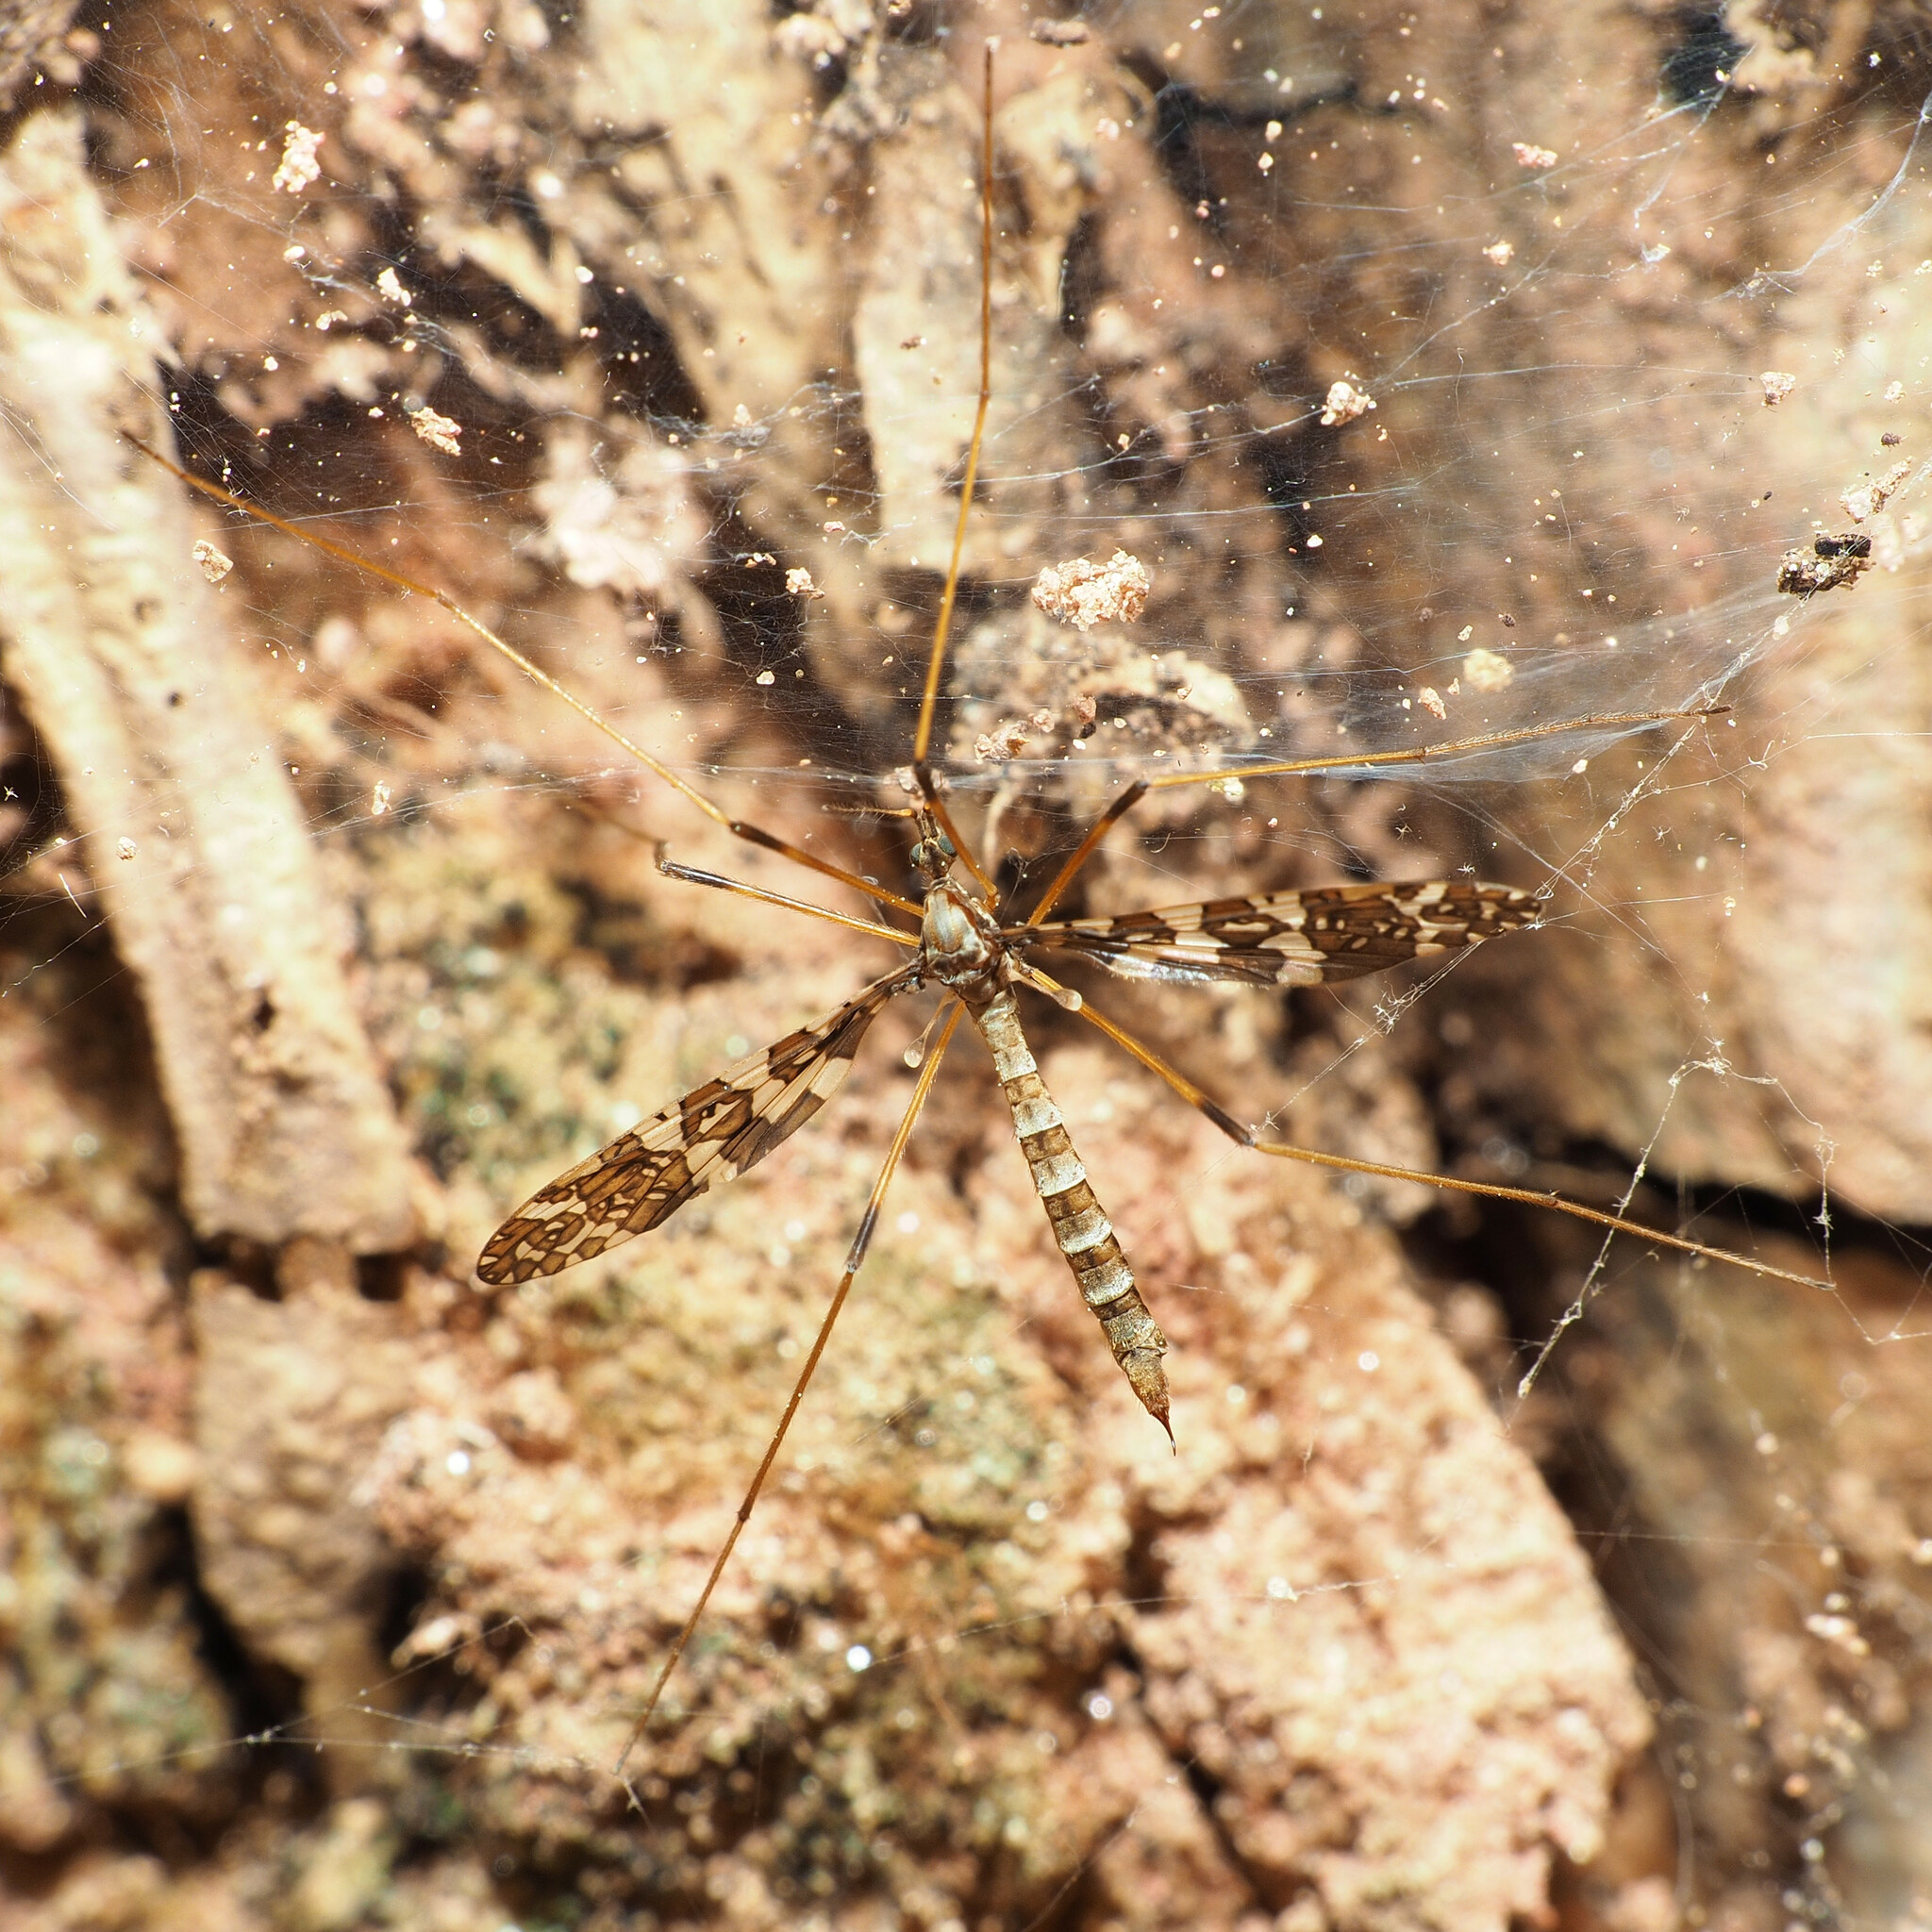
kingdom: Animalia
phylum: Arthropoda
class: Insecta
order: Diptera
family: Limoniidae
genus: Epiphragma
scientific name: Epiphragma fasciapenne
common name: Band-winged crane fly
